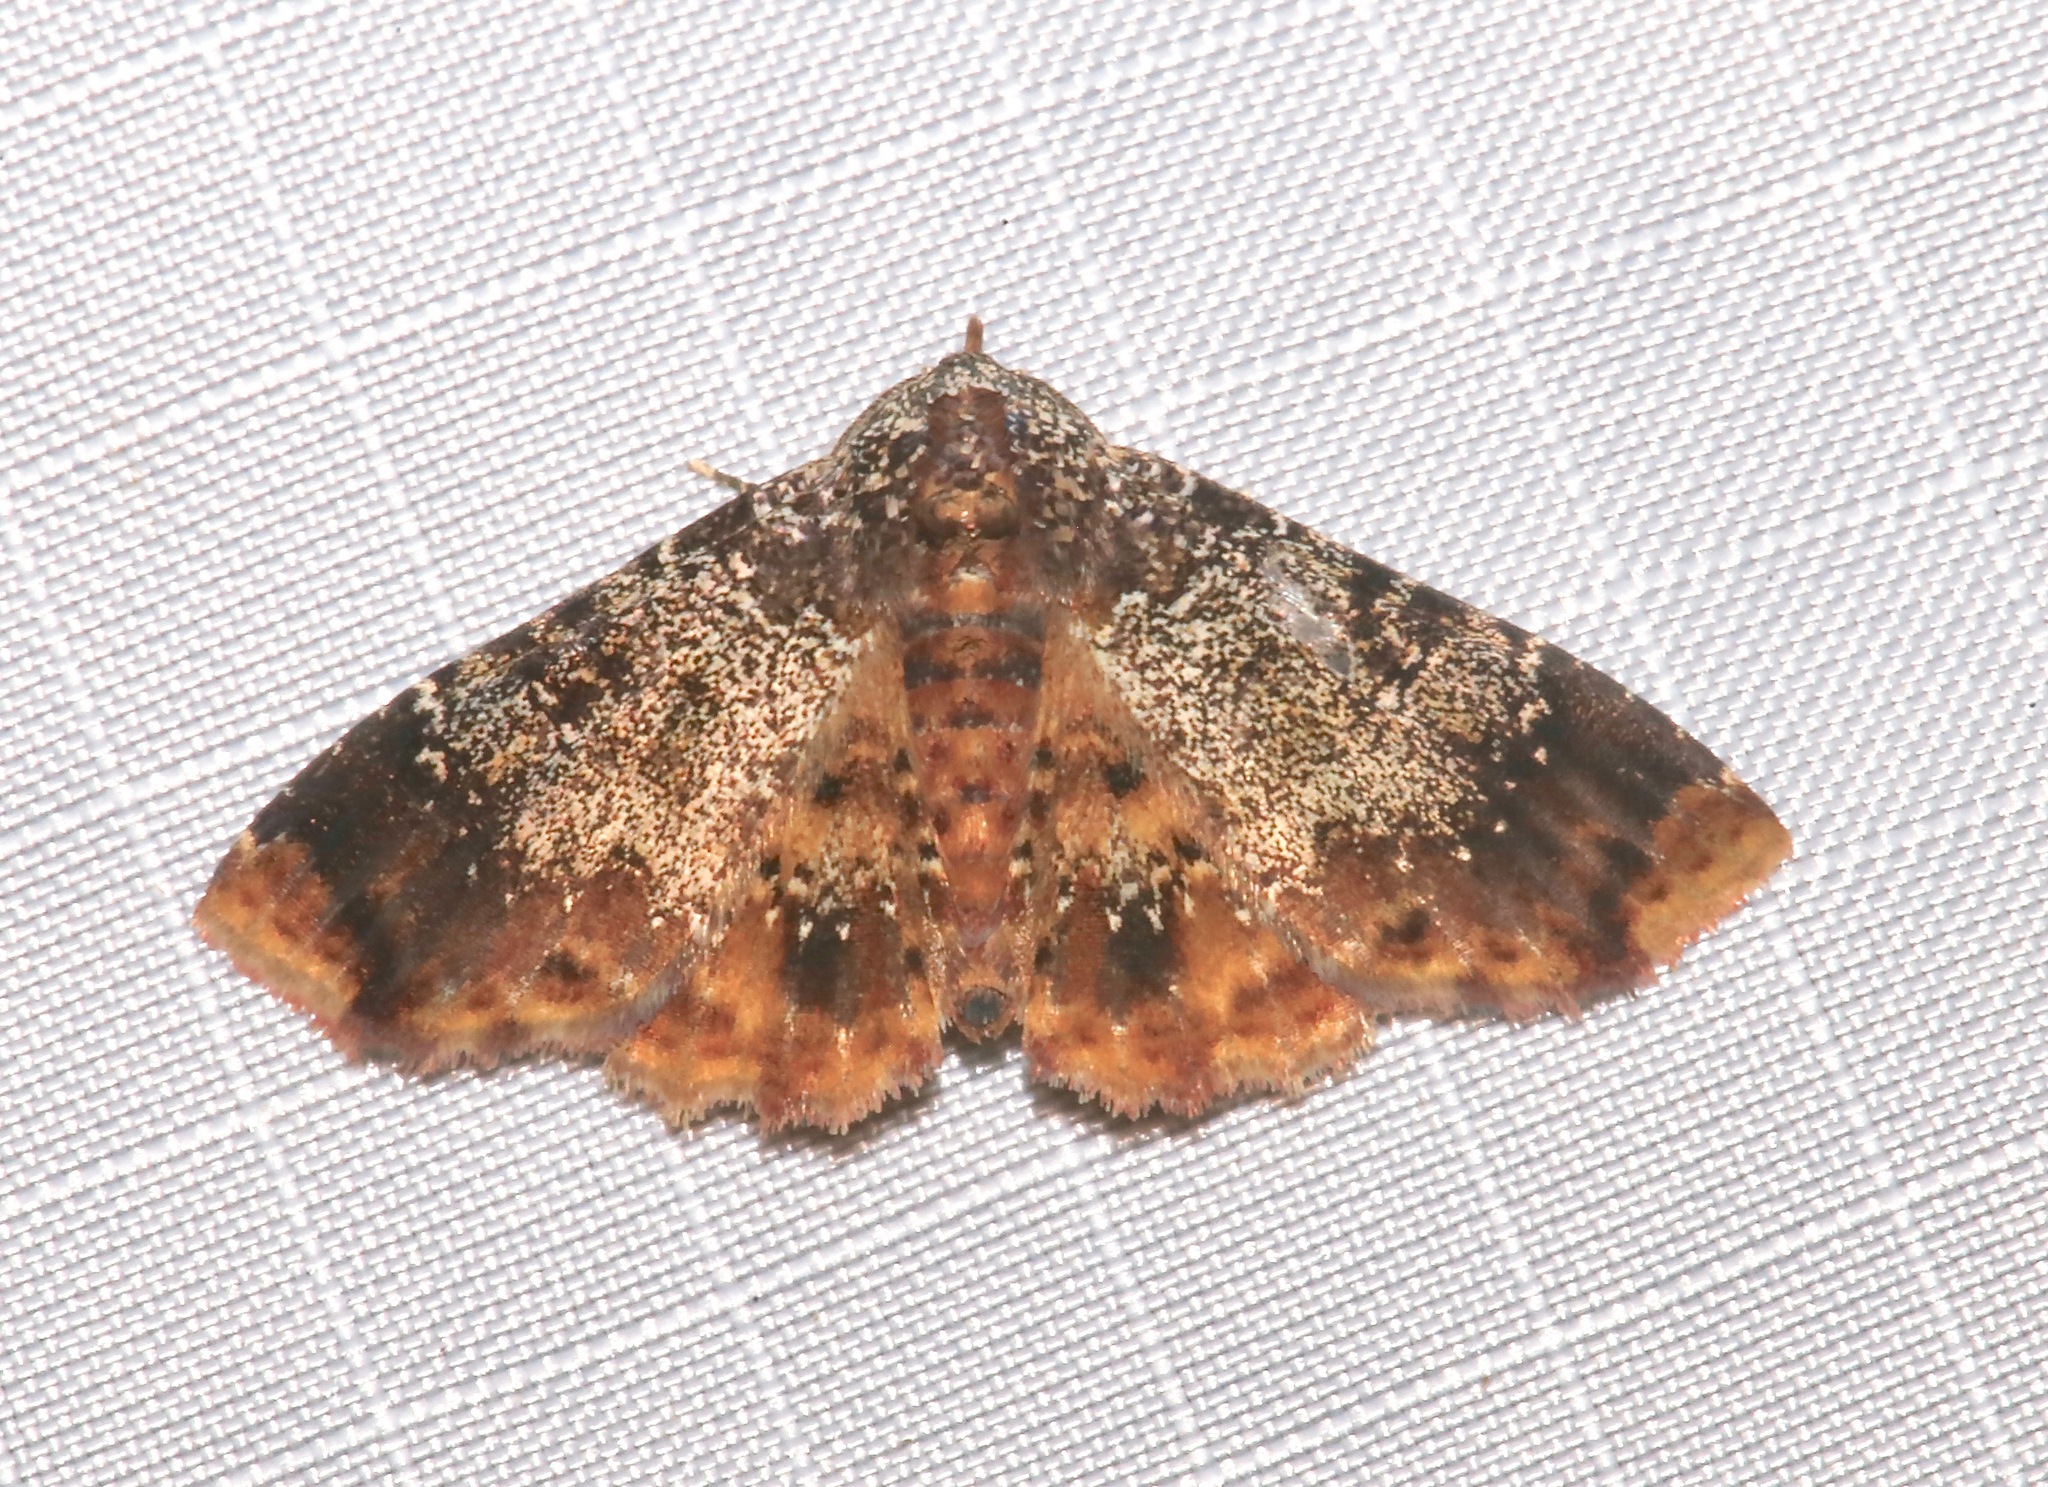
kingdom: Animalia
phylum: Arthropoda
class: Insecta
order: Lepidoptera
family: Erebidae
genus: Selenisa
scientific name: Selenisa specifica
